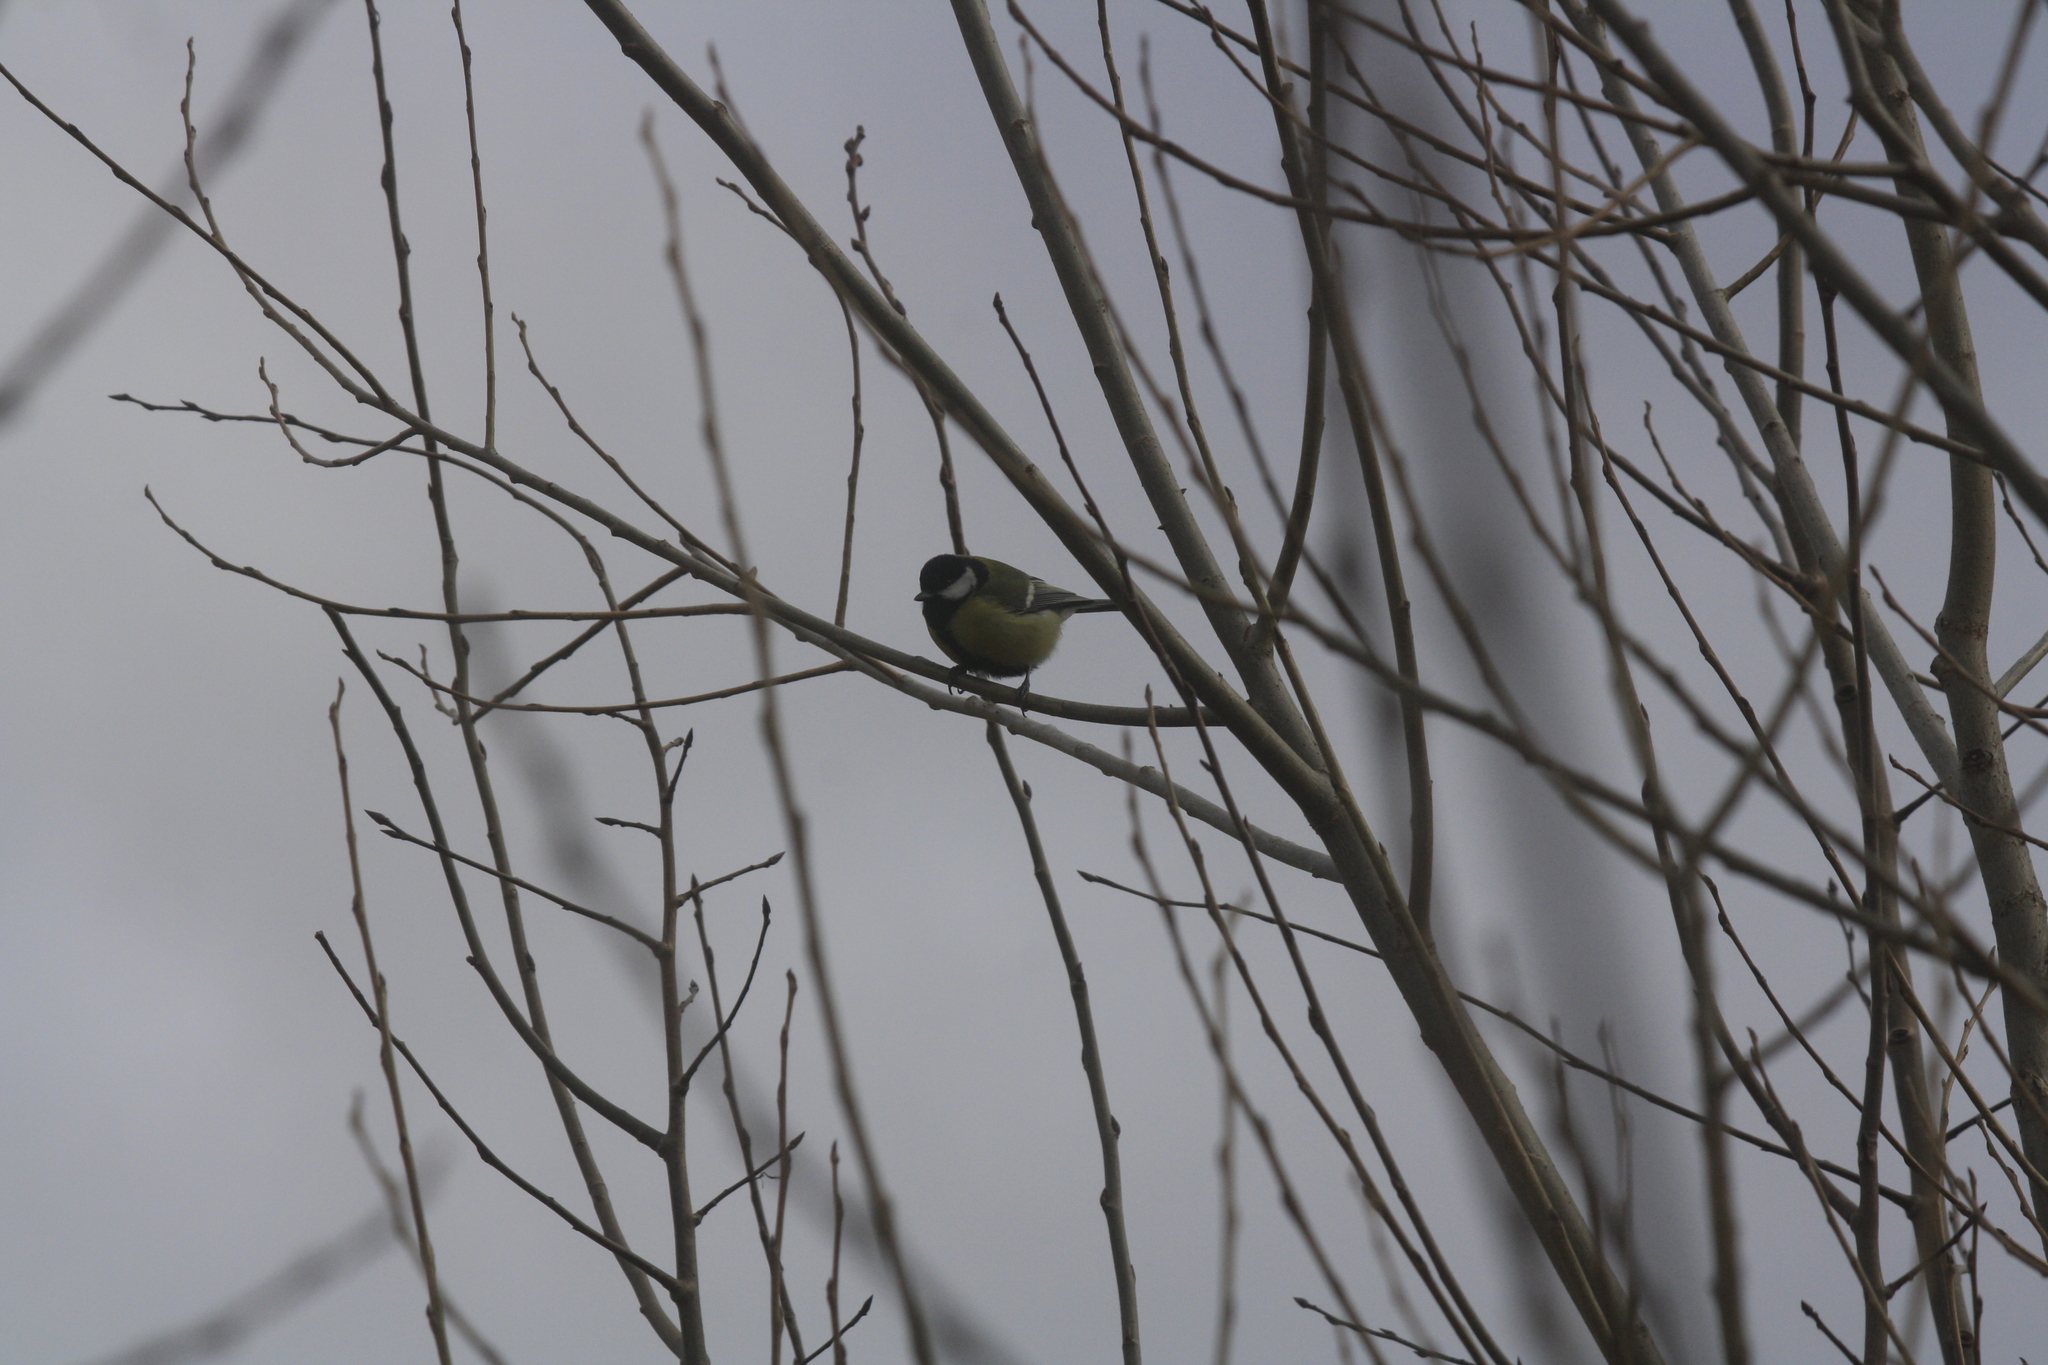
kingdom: Animalia
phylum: Chordata
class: Aves
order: Passeriformes
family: Paridae
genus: Parus
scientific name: Parus major
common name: Great tit
